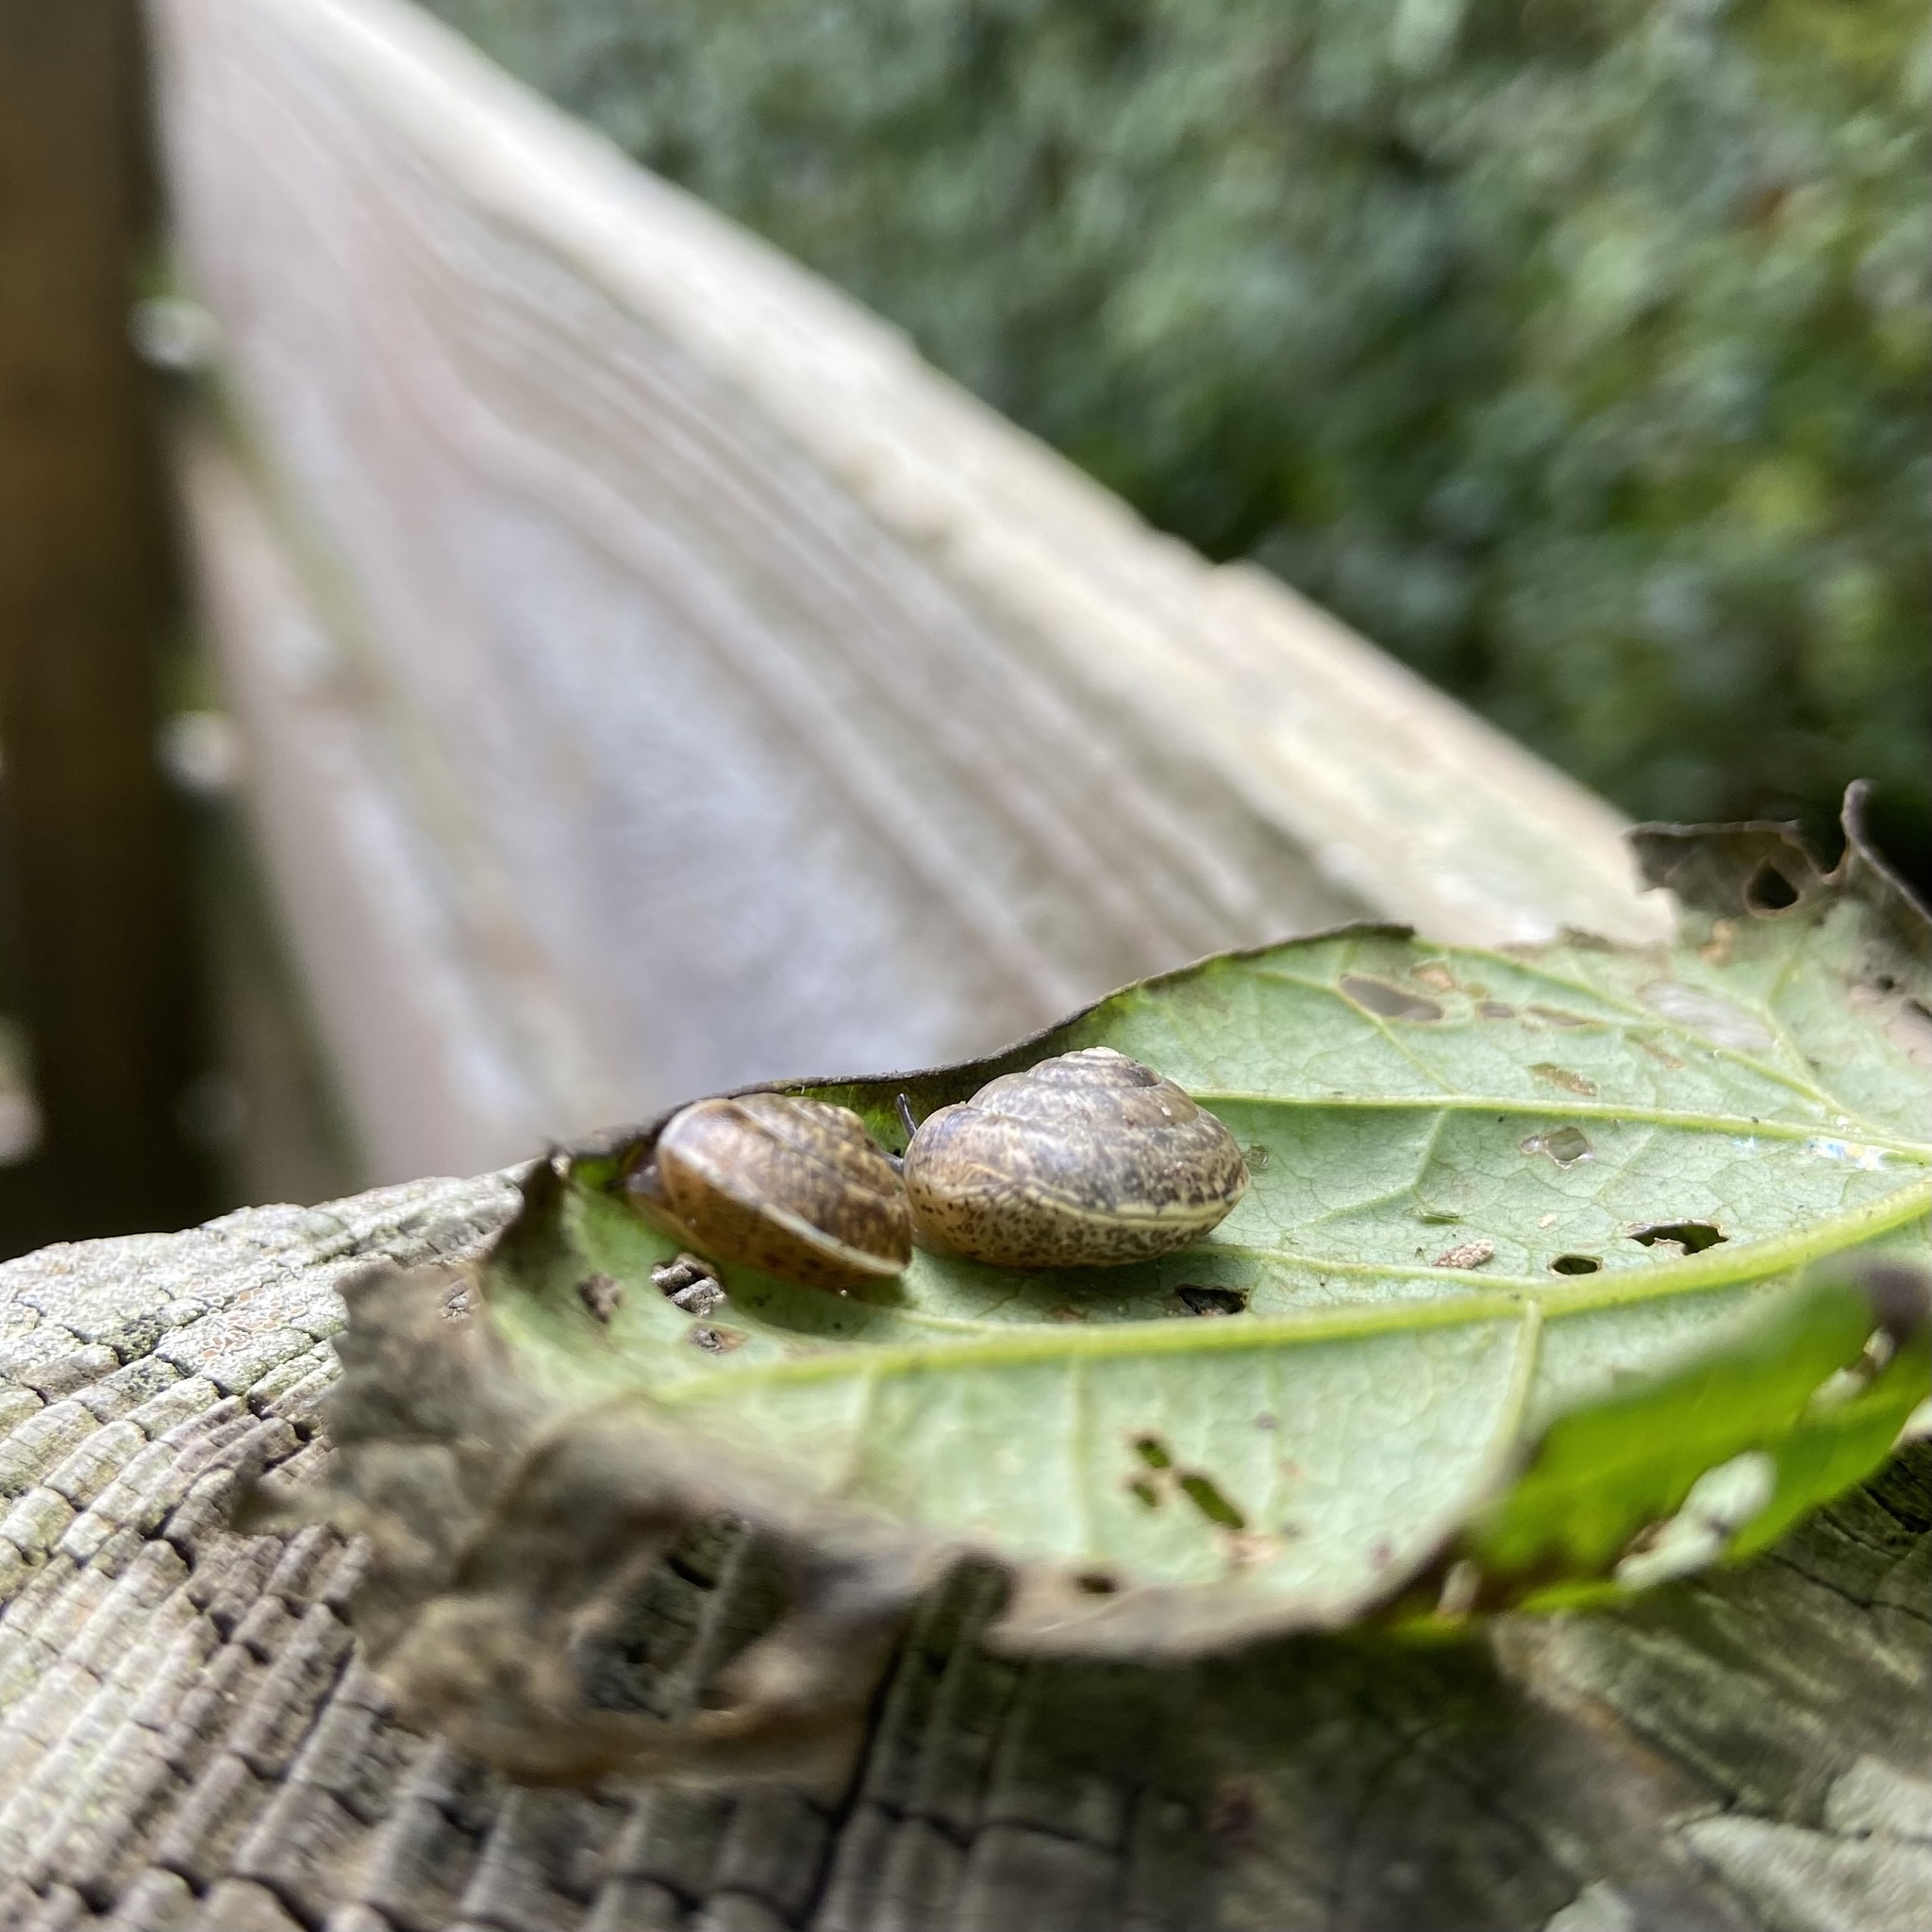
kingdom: Animalia
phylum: Mollusca
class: Gastropoda
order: Stylommatophora
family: Hygromiidae
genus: Hygromia
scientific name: Hygromia cinctella
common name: Girdled snail
